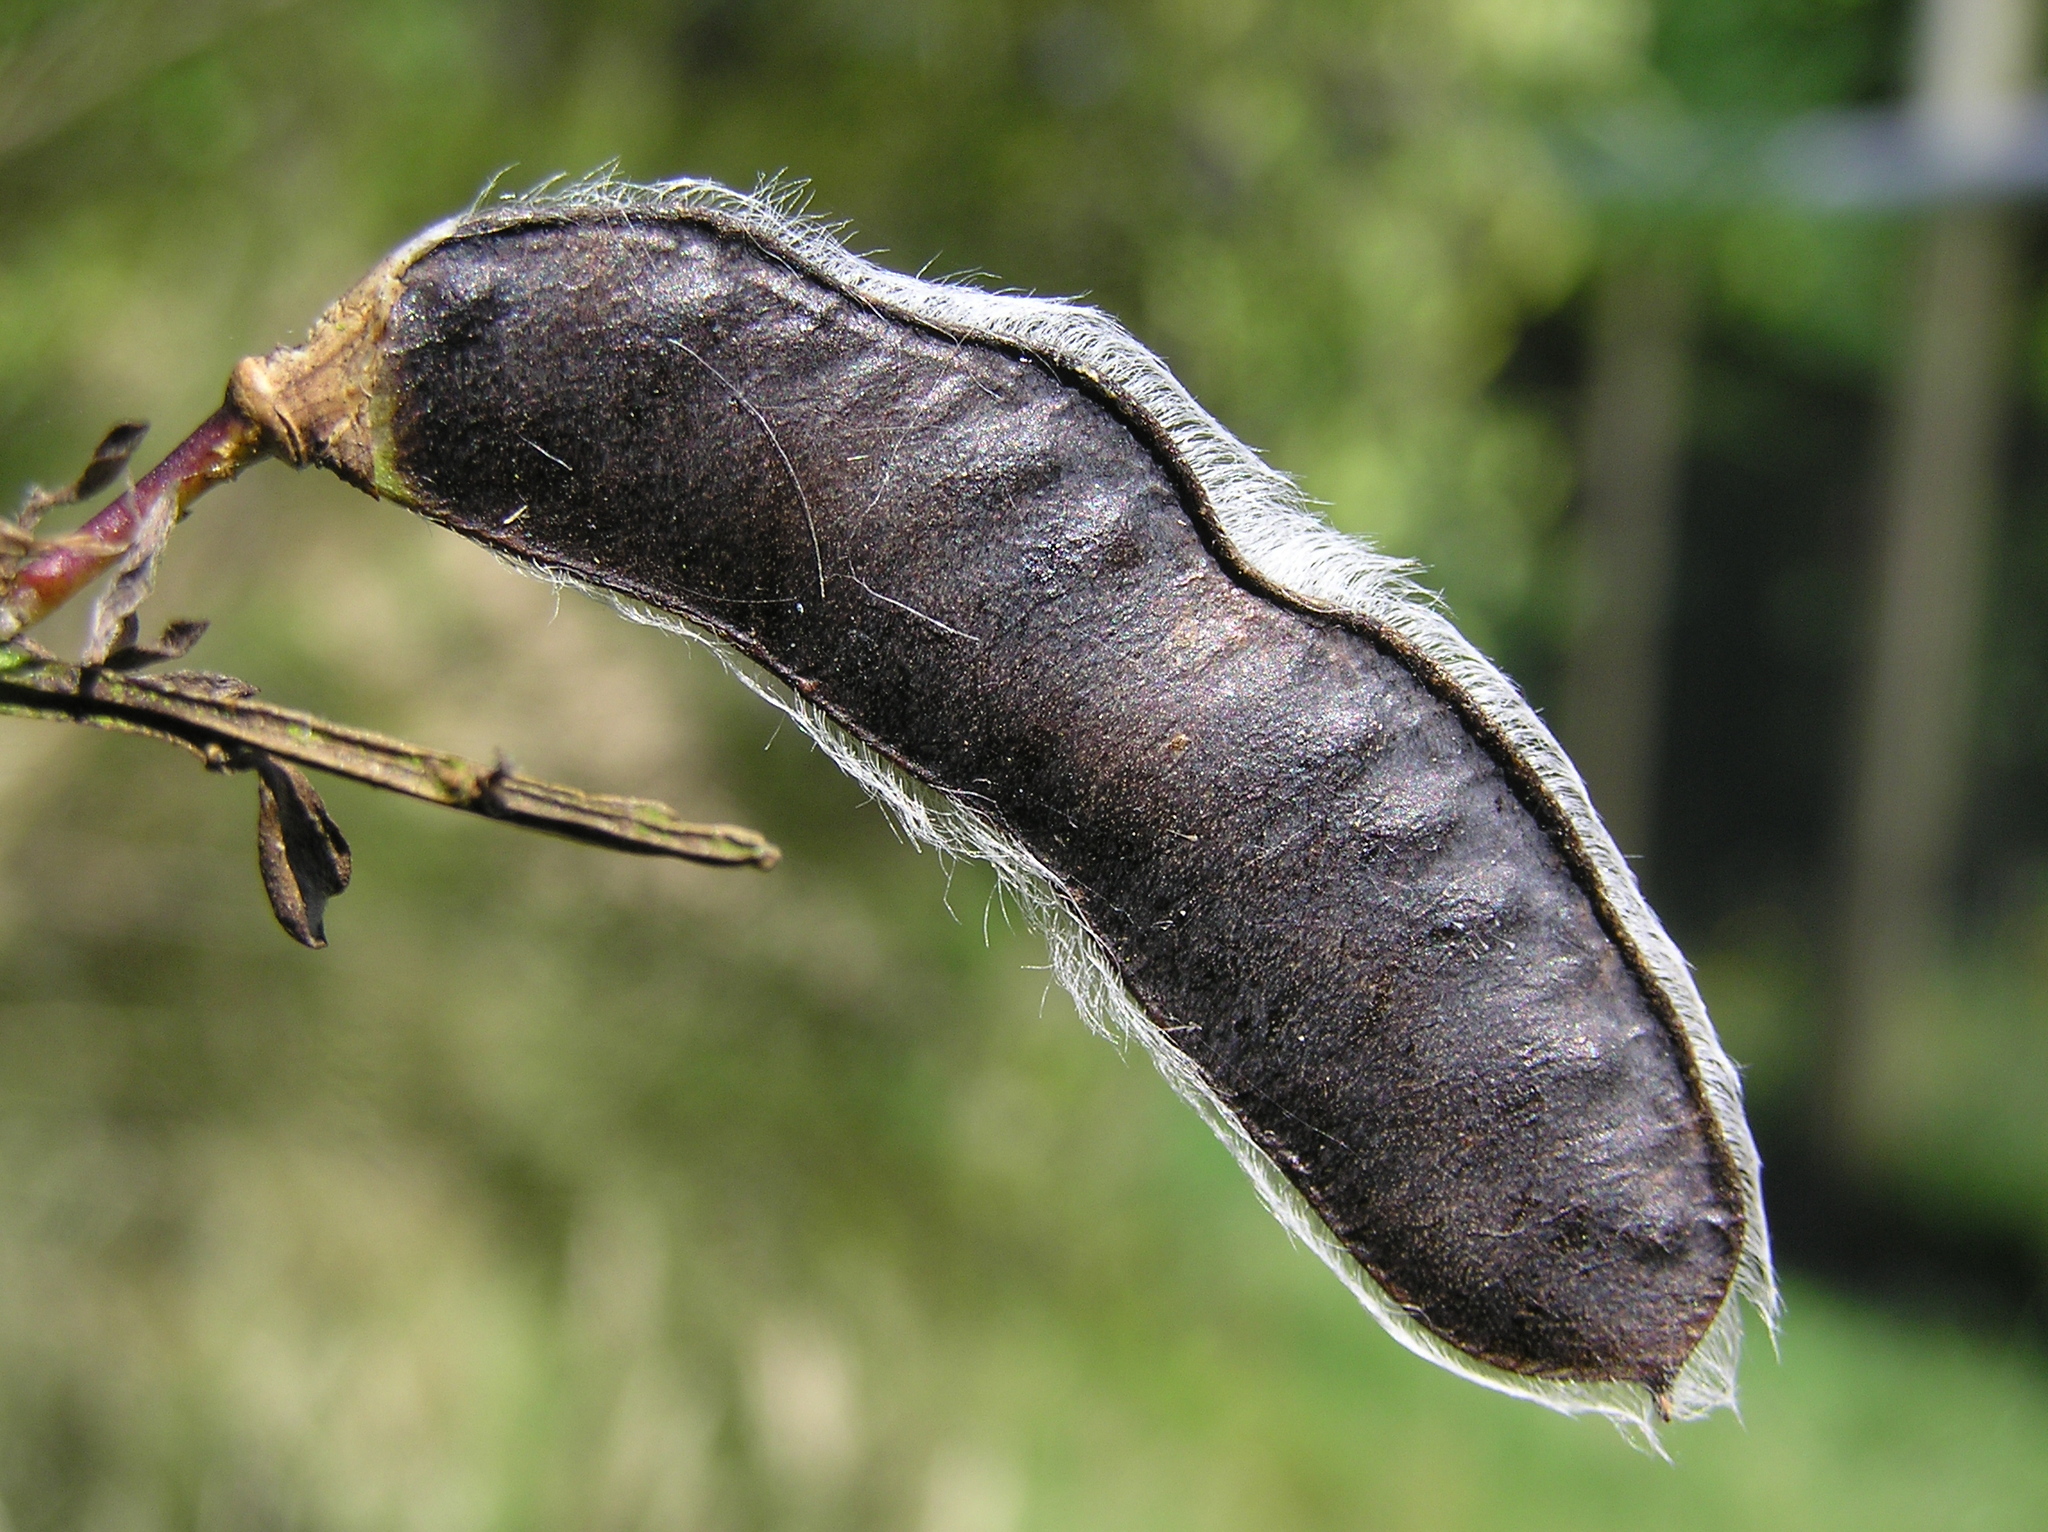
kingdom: Plantae
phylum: Tracheophyta
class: Magnoliopsida
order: Fabales
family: Fabaceae
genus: Cytisus
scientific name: Cytisus scoparius
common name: Scotch broom
